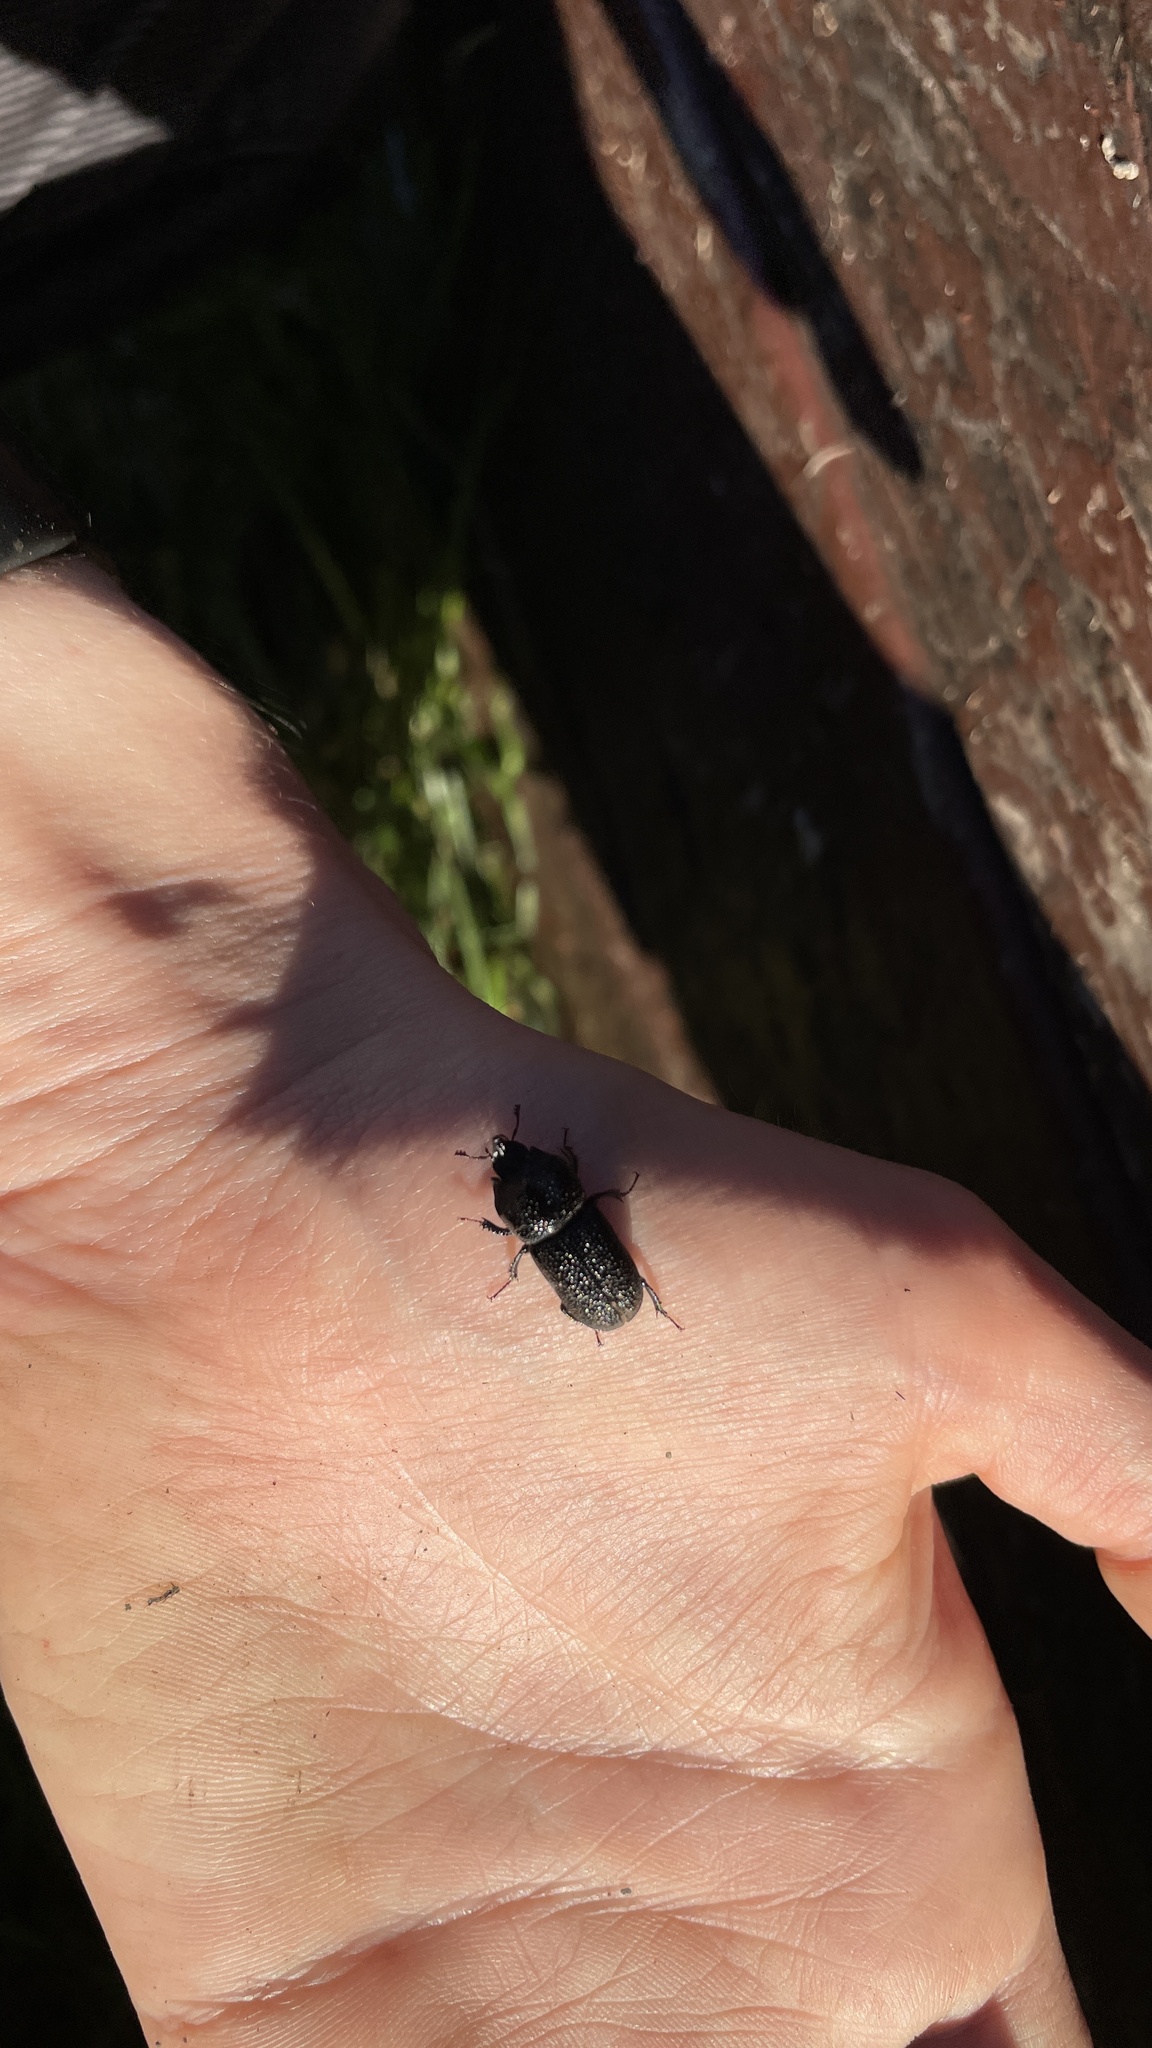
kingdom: Animalia
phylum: Arthropoda
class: Insecta
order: Coleoptera
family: Lucanidae
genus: Sinodendron
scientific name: Sinodendron rugosum
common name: Rugose stag beelte
